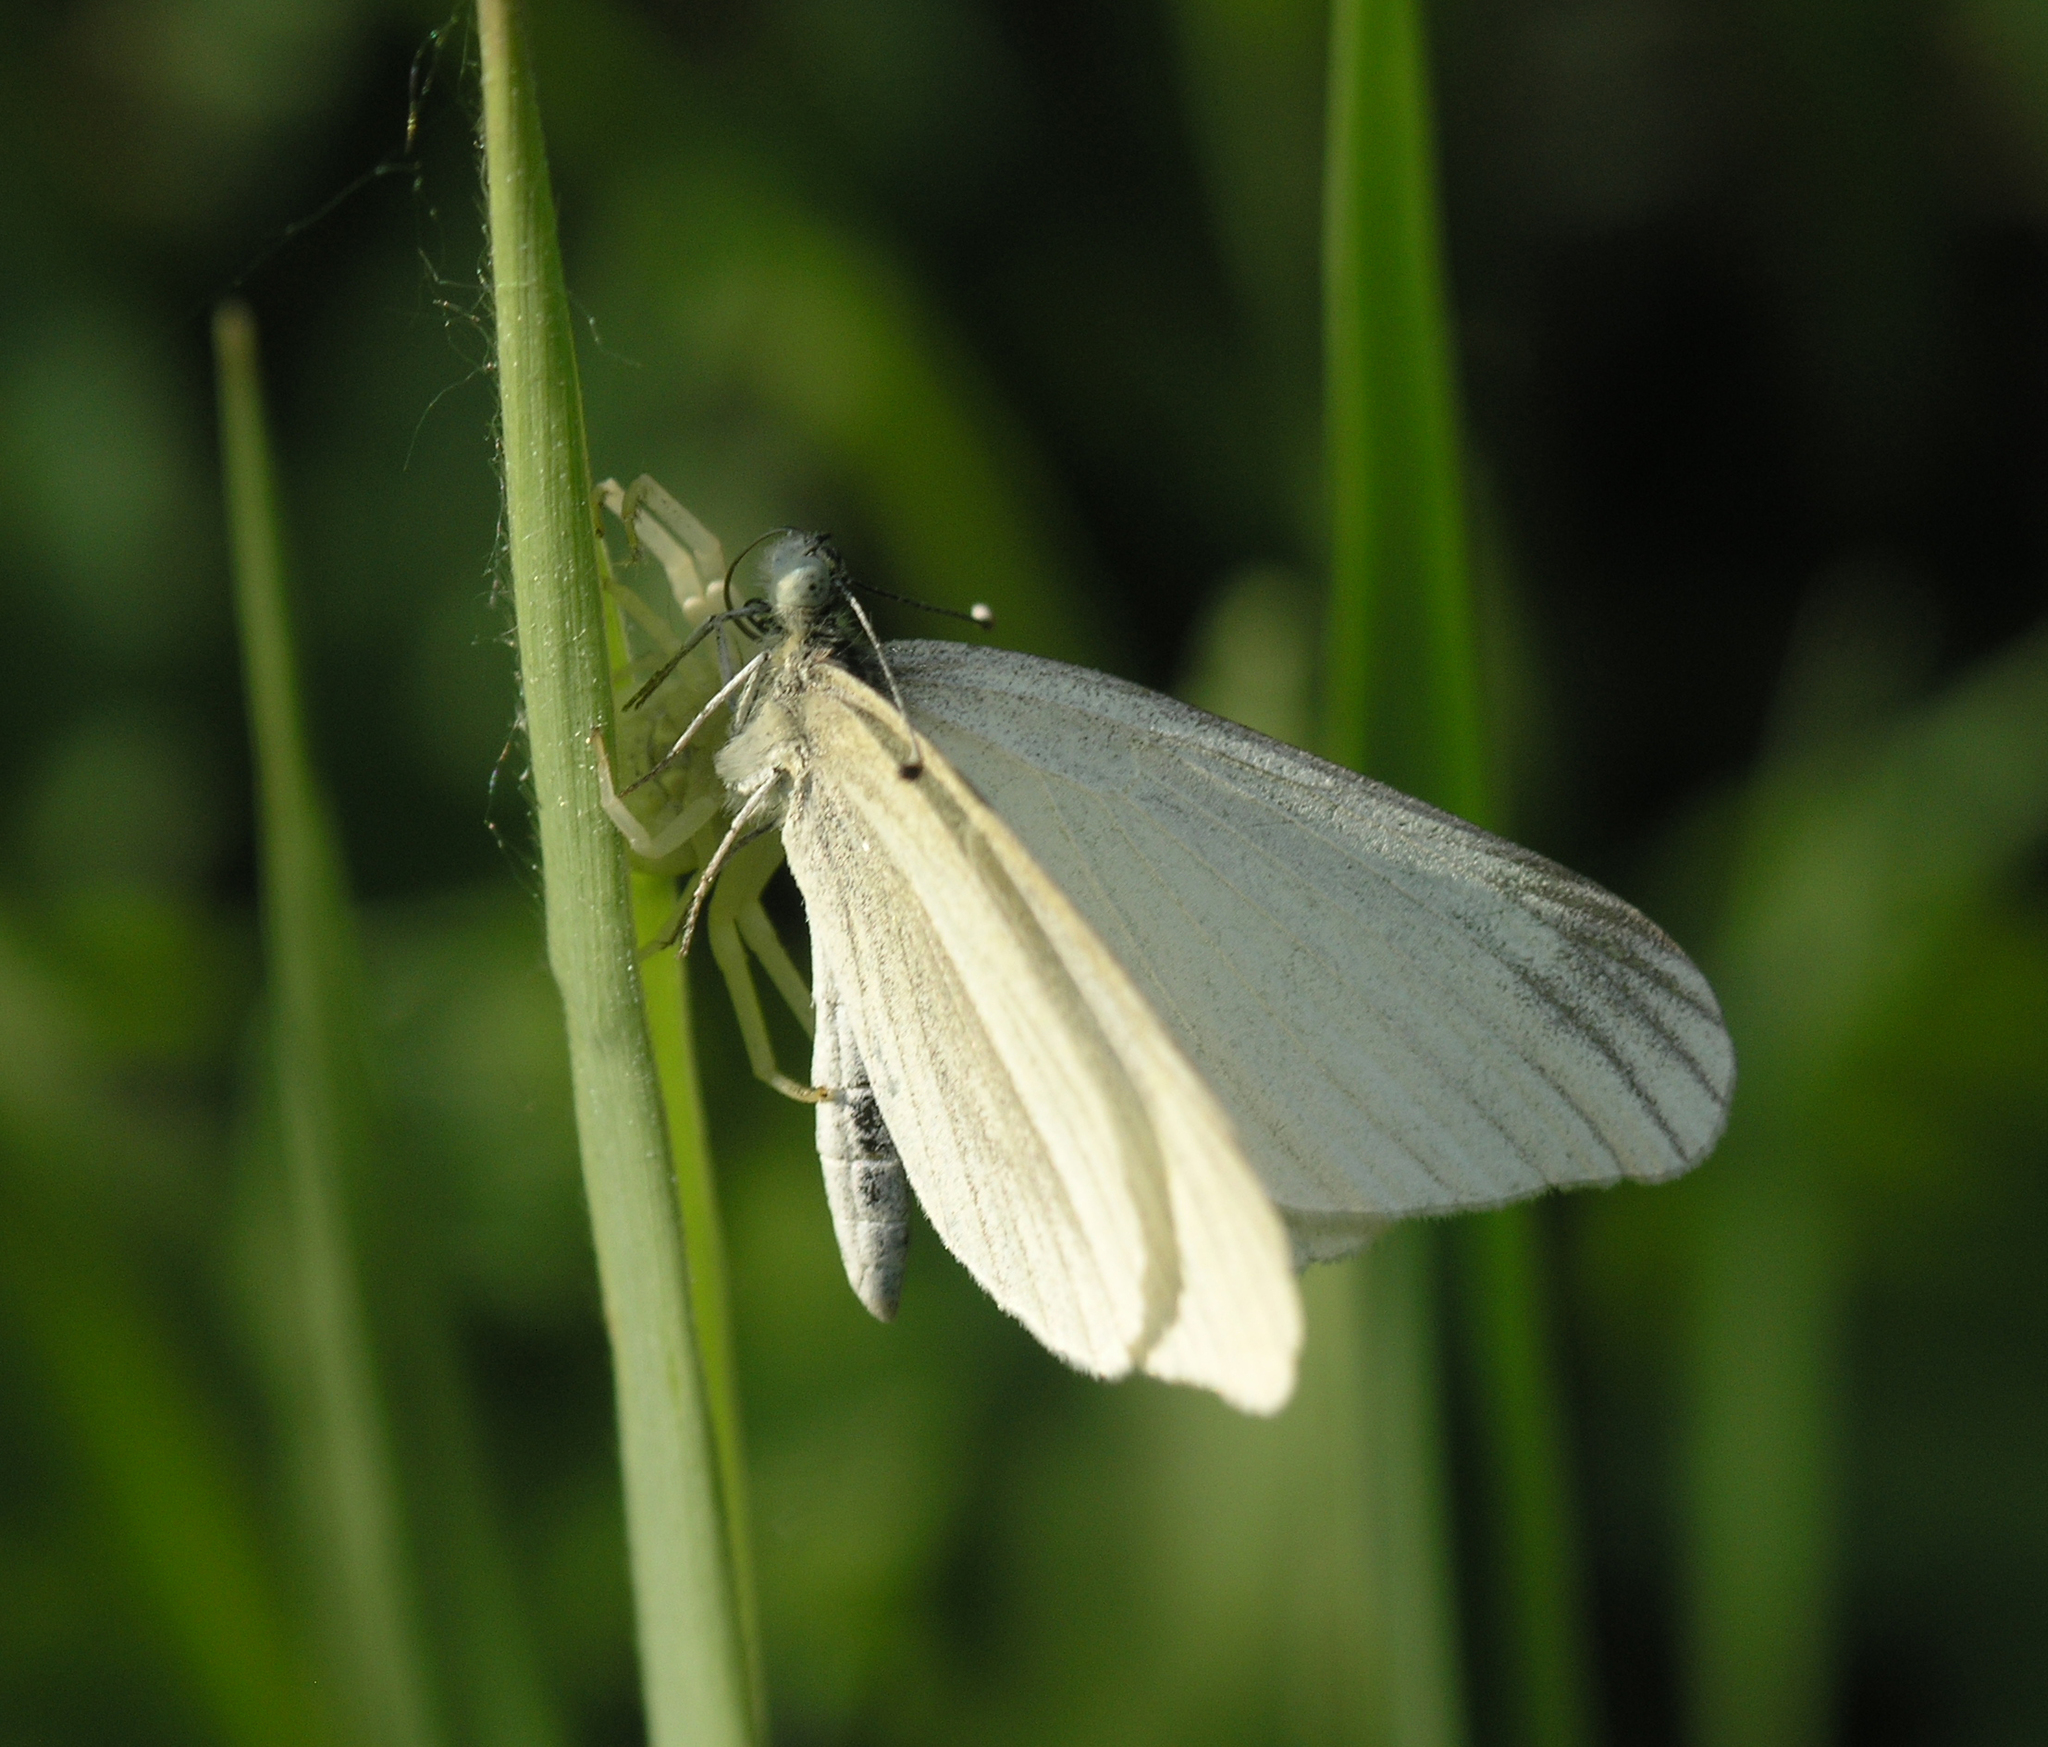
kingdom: Animalia
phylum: Arthropoda
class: Insecta
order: Lepidoptera
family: Pieridae
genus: Leptidea
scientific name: Leptidea amurensis
